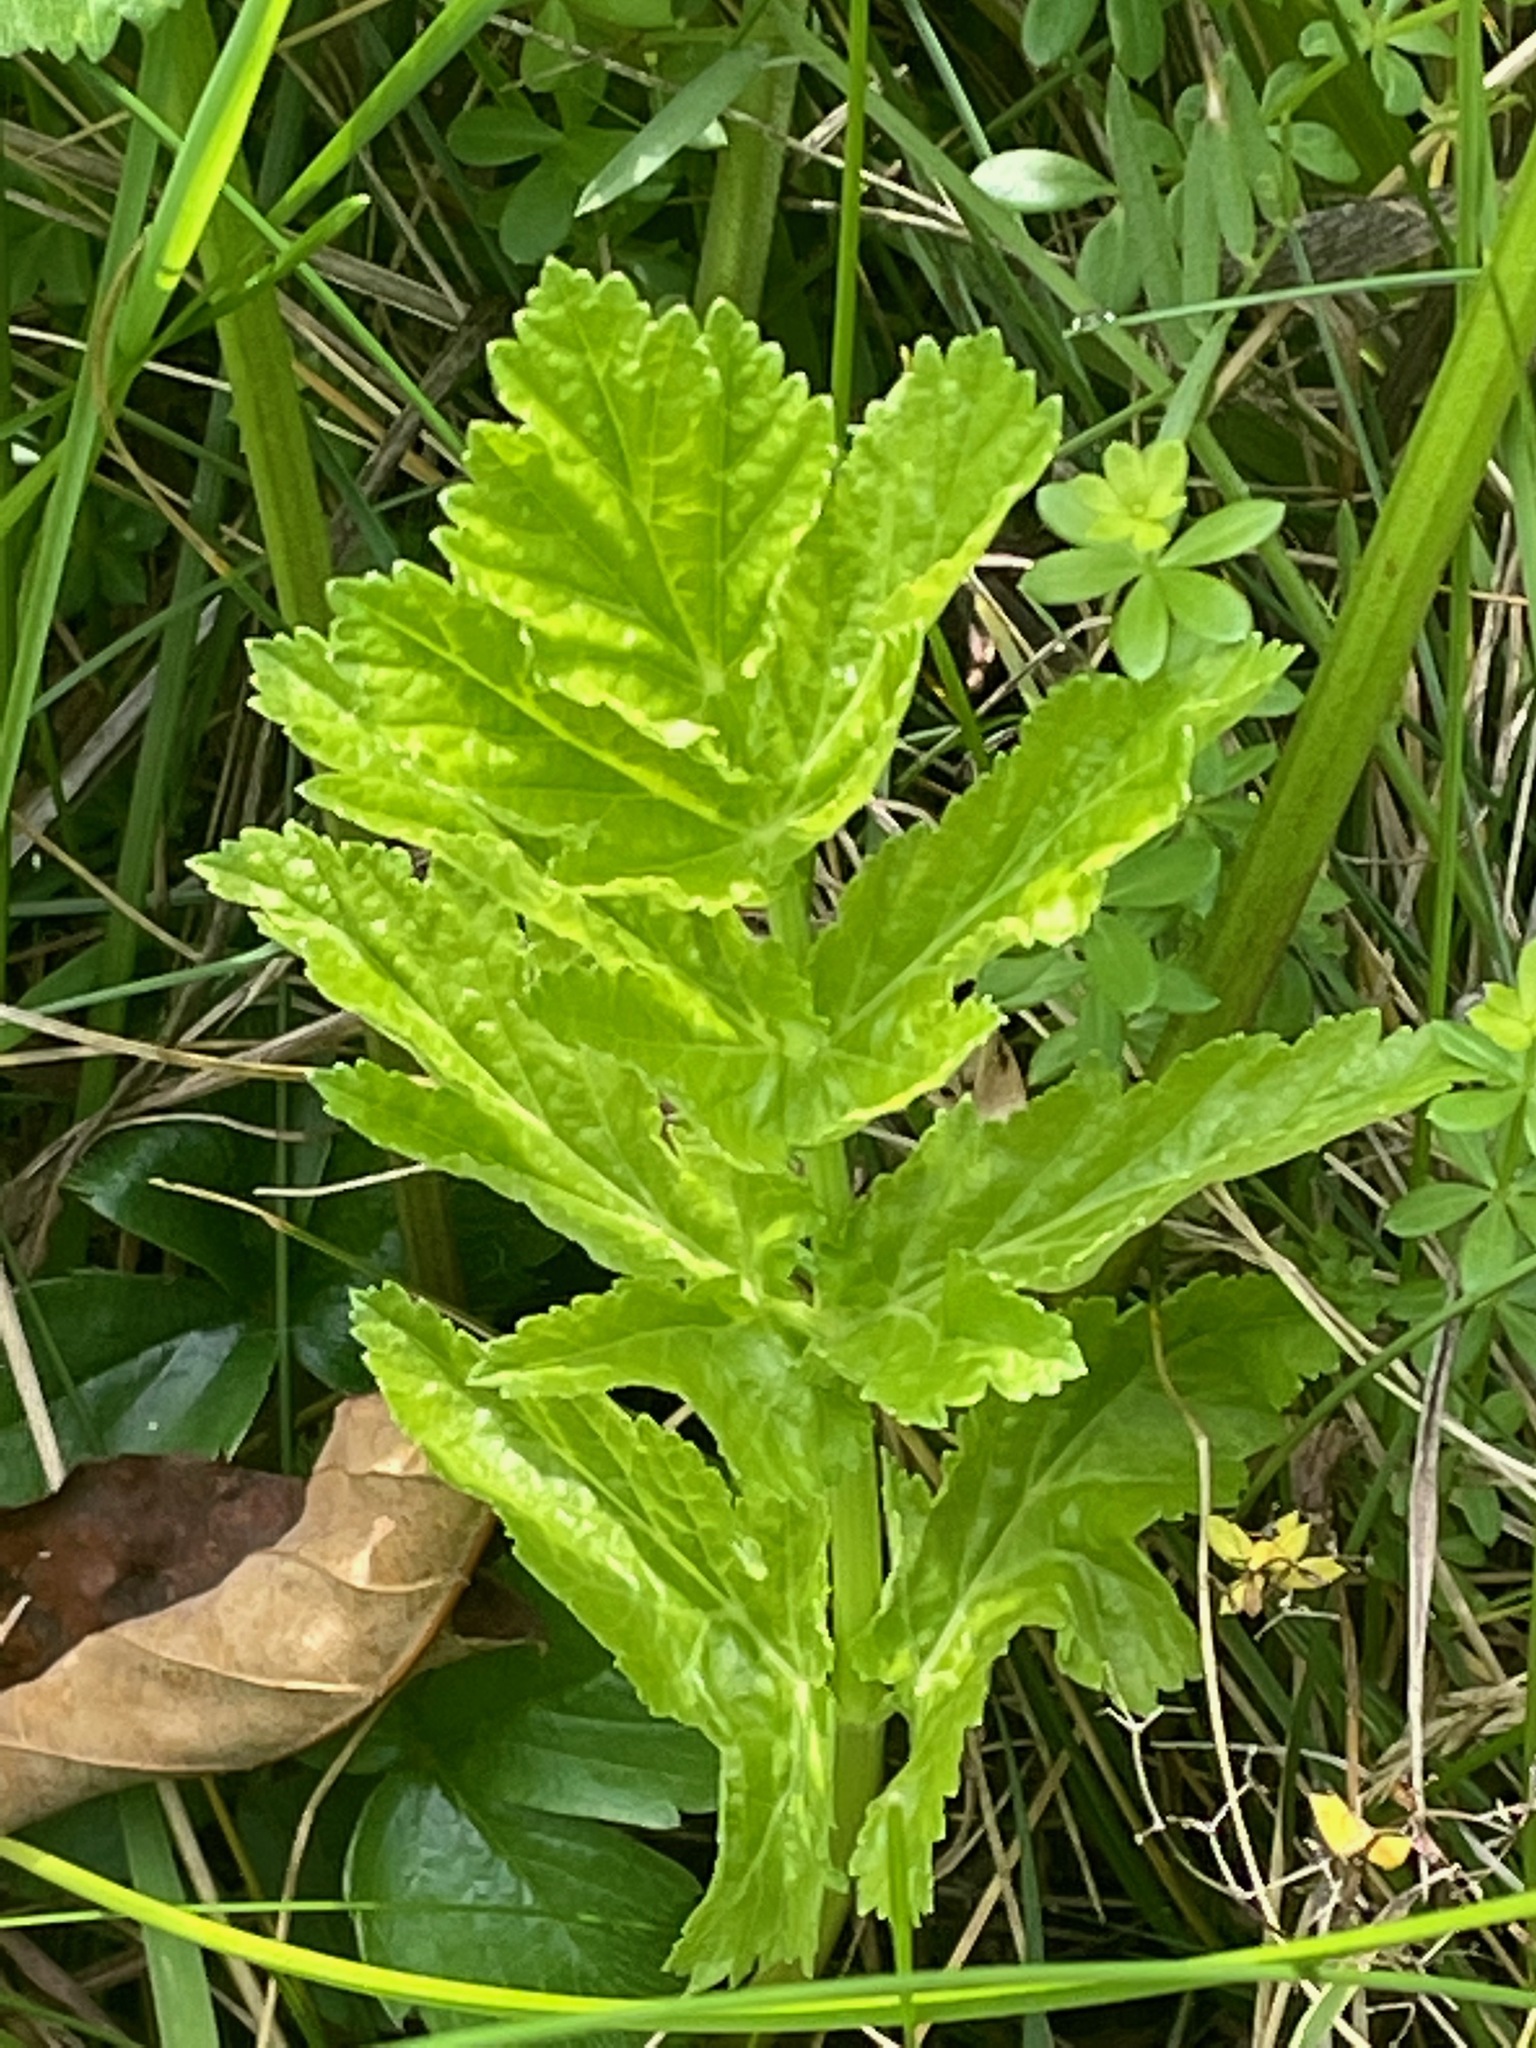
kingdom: Plantae
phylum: Tracheophyta
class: Magnoliopsida
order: Apiales
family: Apiaceae
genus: Pastinaca
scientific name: Pastinaca sativa
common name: Wild parsnip
